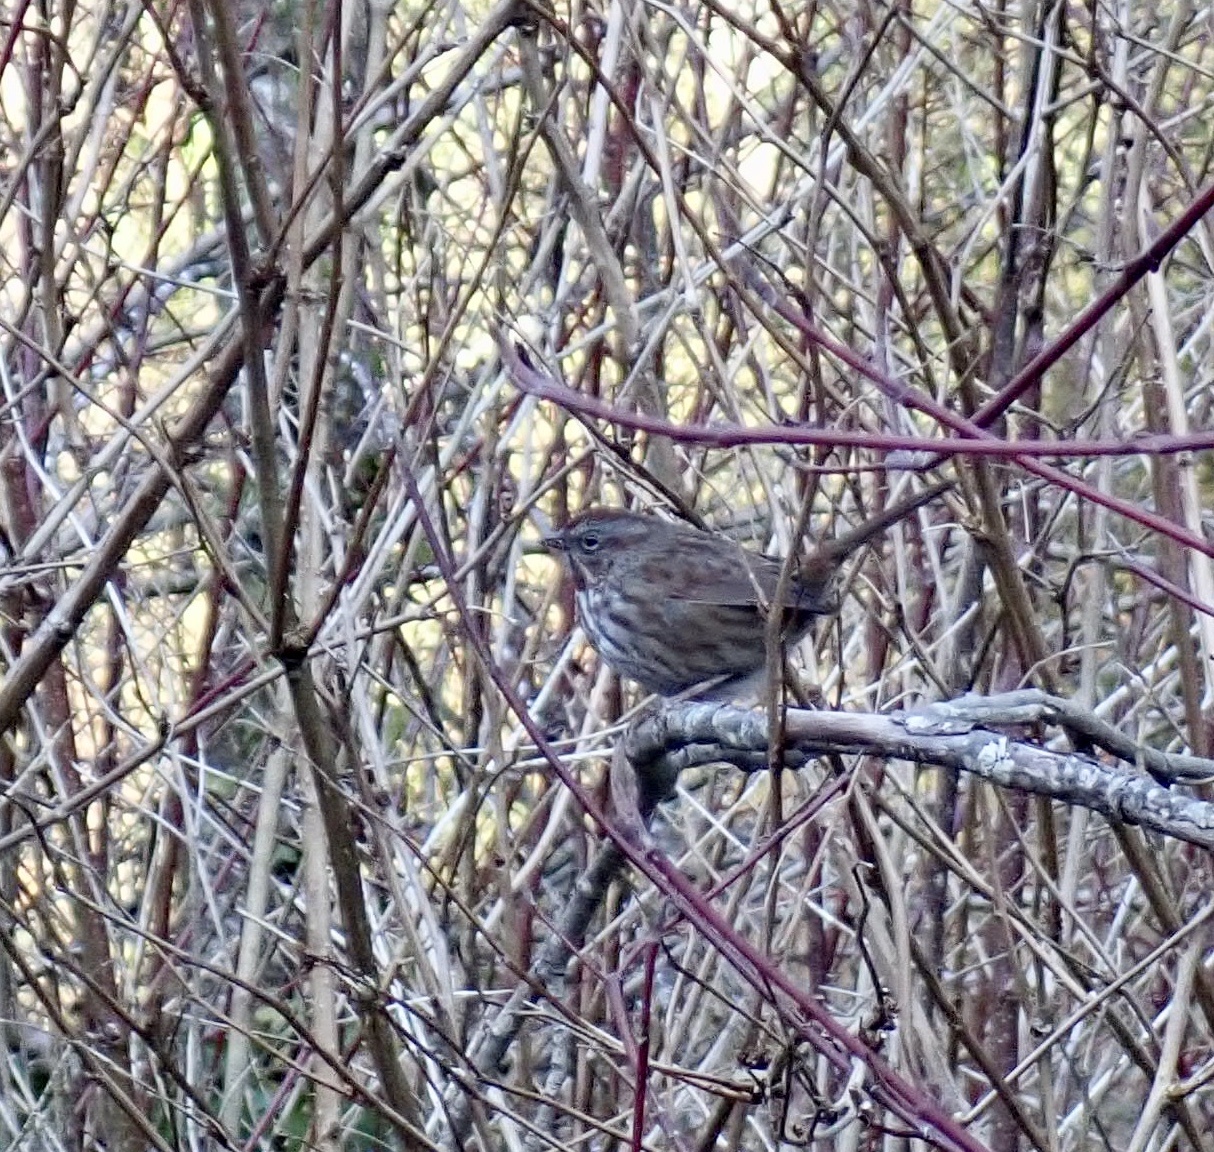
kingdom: Animalia
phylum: Chordata
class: Aves
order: Passeriformes
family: Passerellidae
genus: Melospiza
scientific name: Melospiza melodia
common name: Song sparrow
